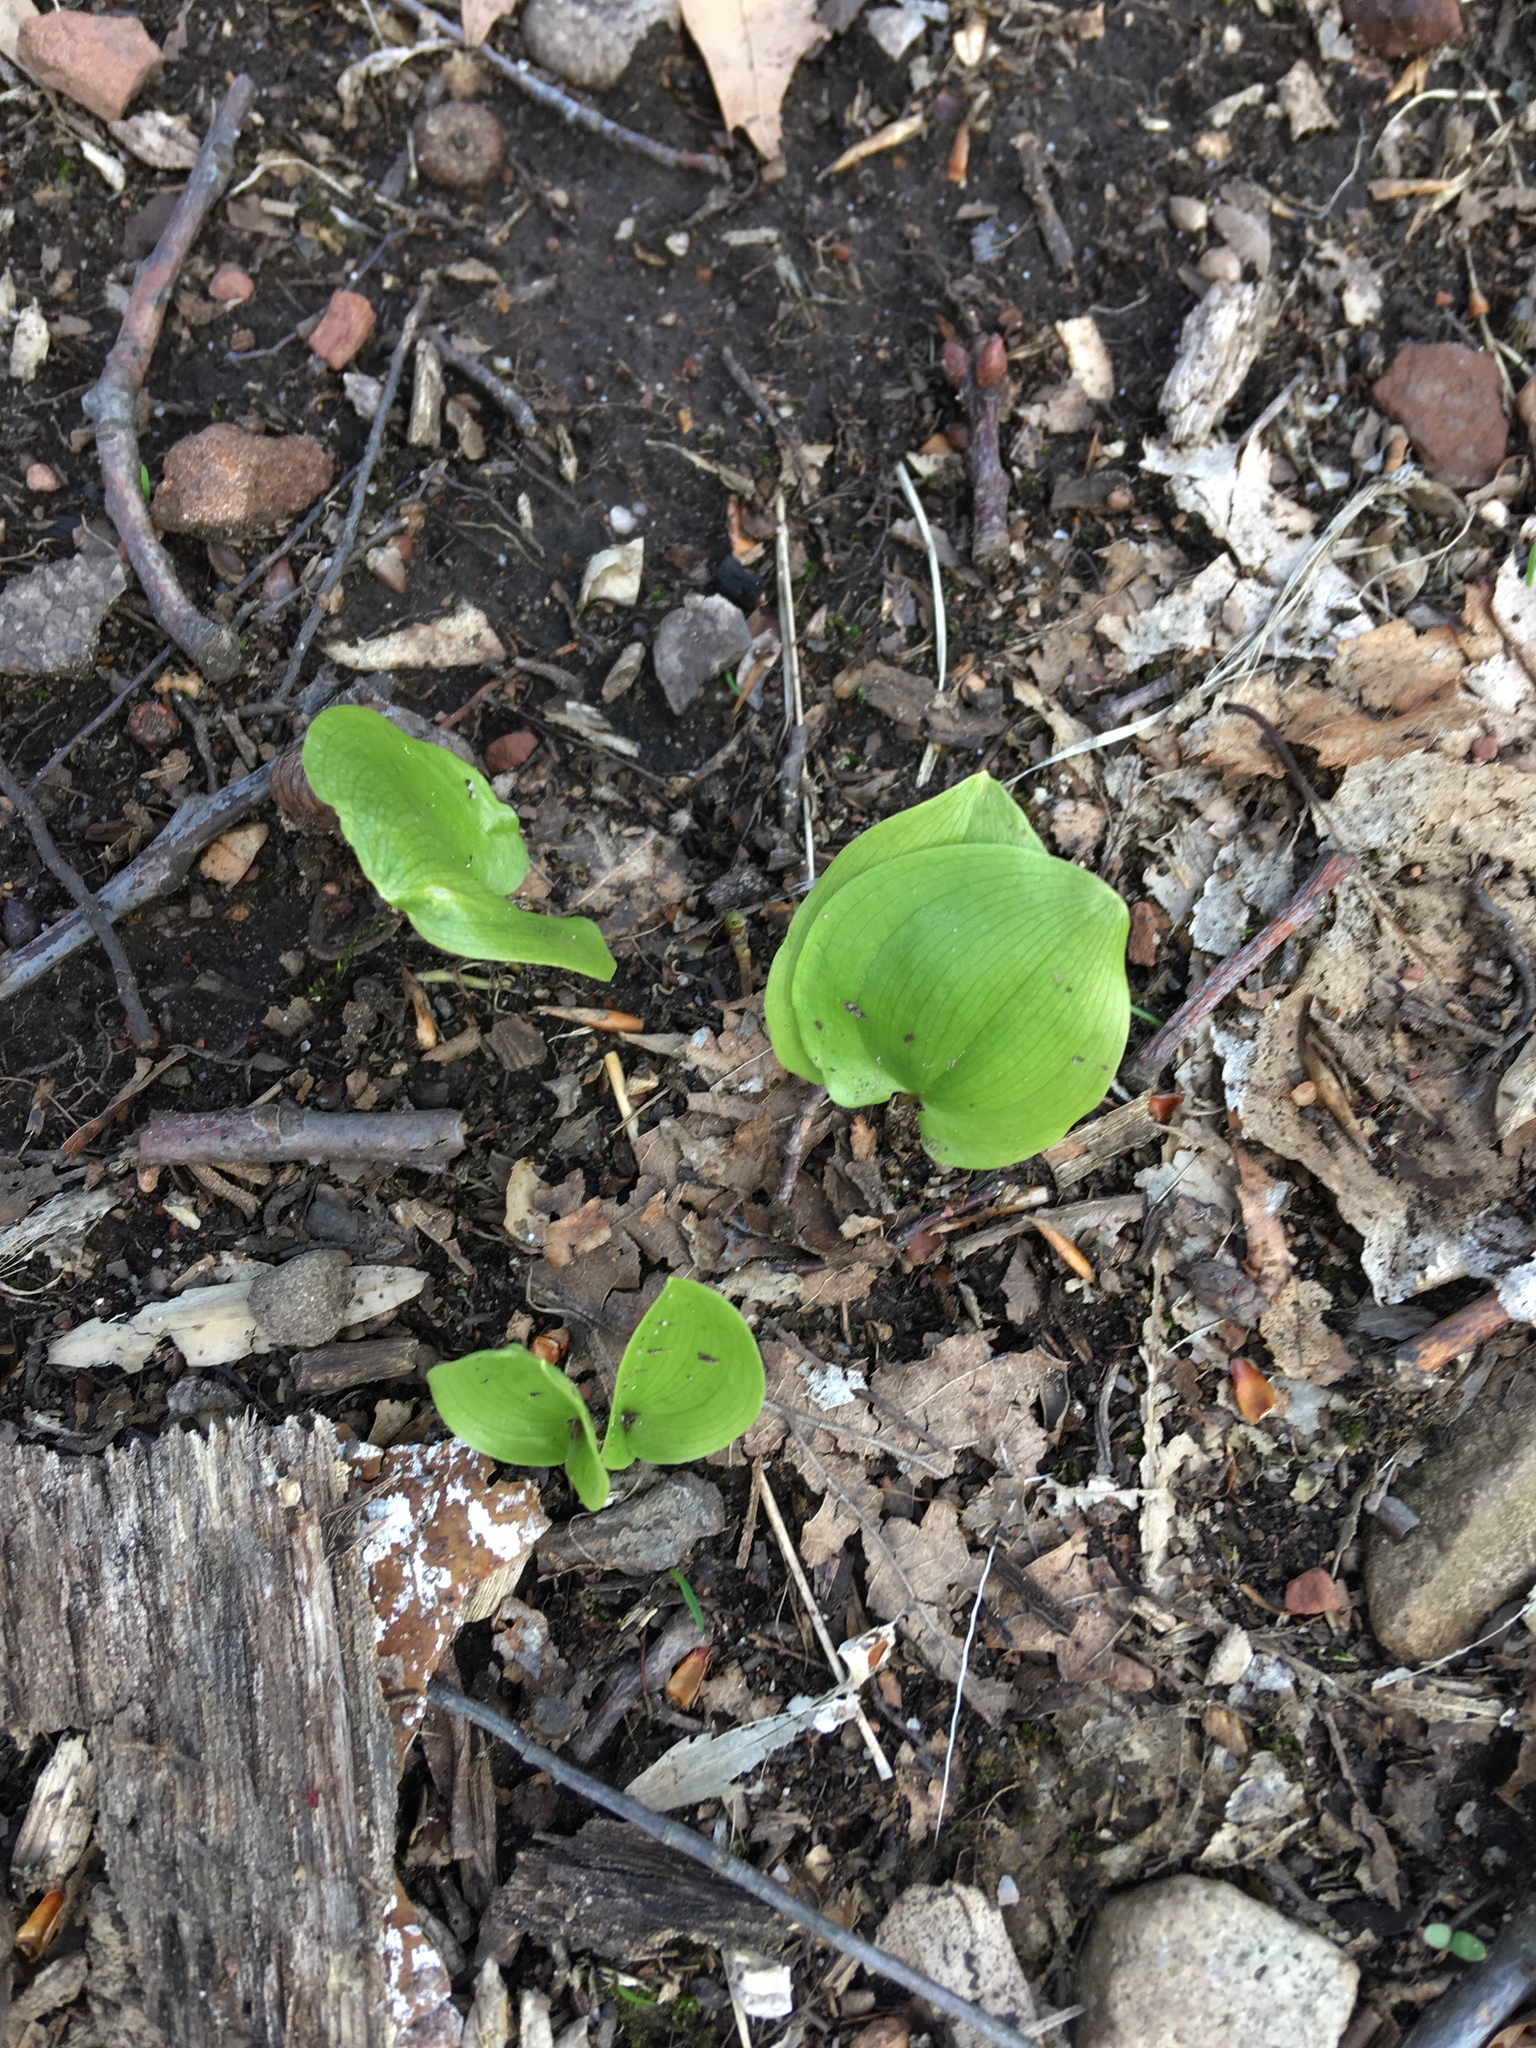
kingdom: Plantae
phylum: Tracheophyta
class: Liliopsida
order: Asparagales
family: Asparagaceae
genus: Maianthemum
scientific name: Maianthemum canadense
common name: False lily-of-the-valley
